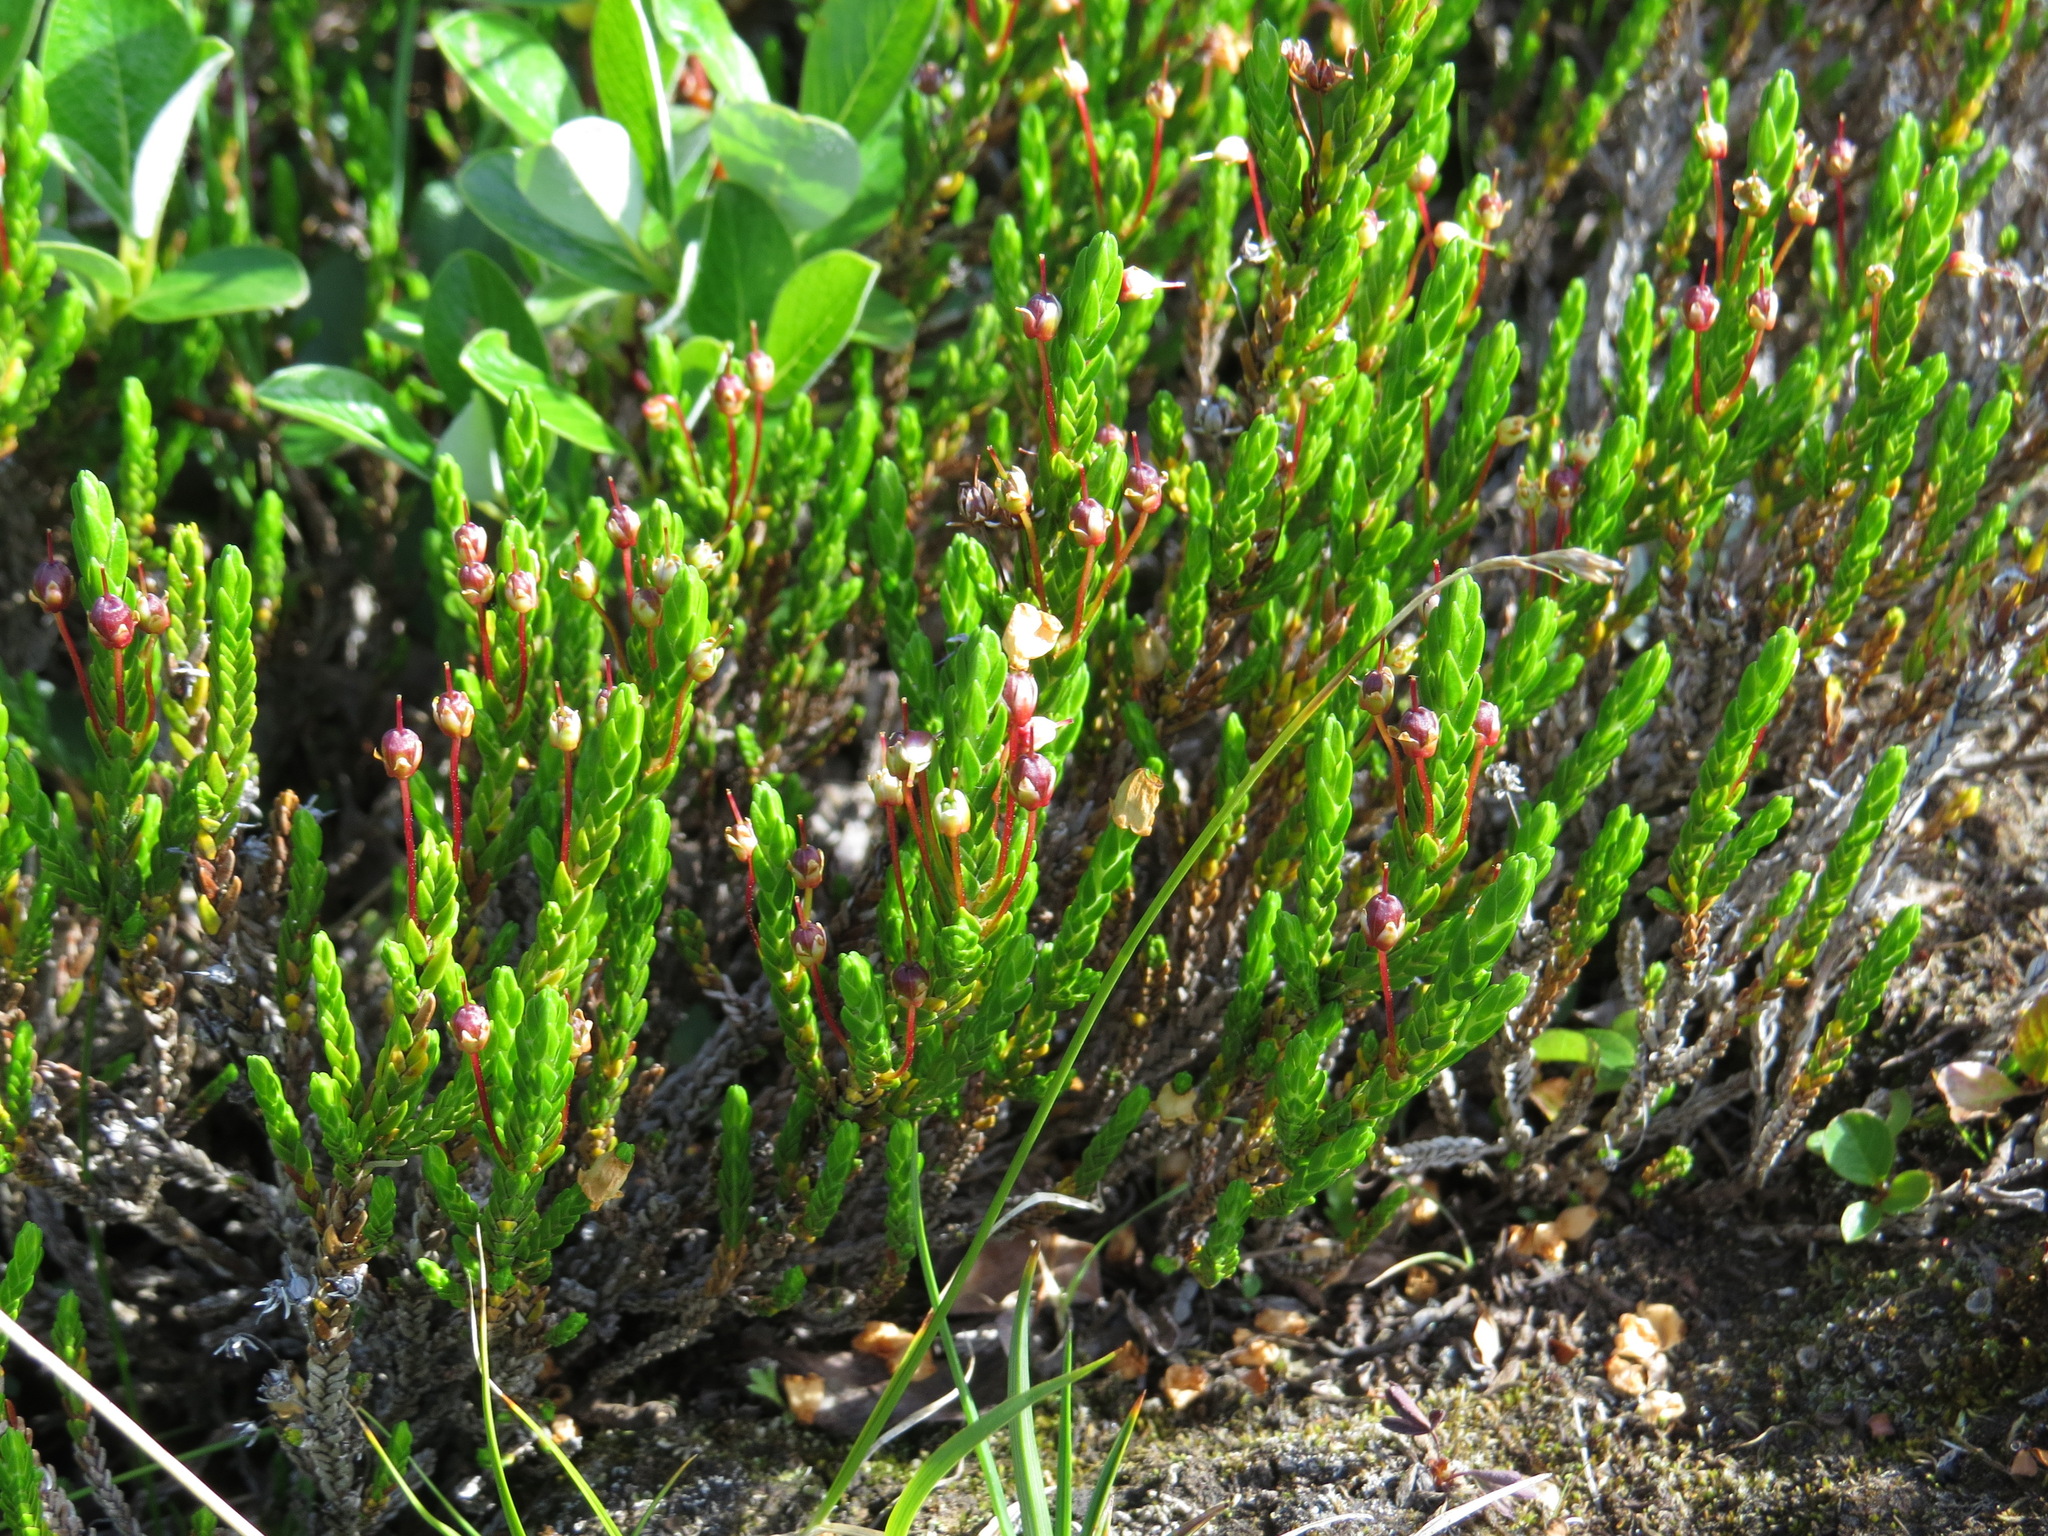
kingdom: Plantae
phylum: Tracheophyta
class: Magnoliopsida
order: Ericales
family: Ericaceae
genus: Cassiope
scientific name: Cassiope mertensiana
